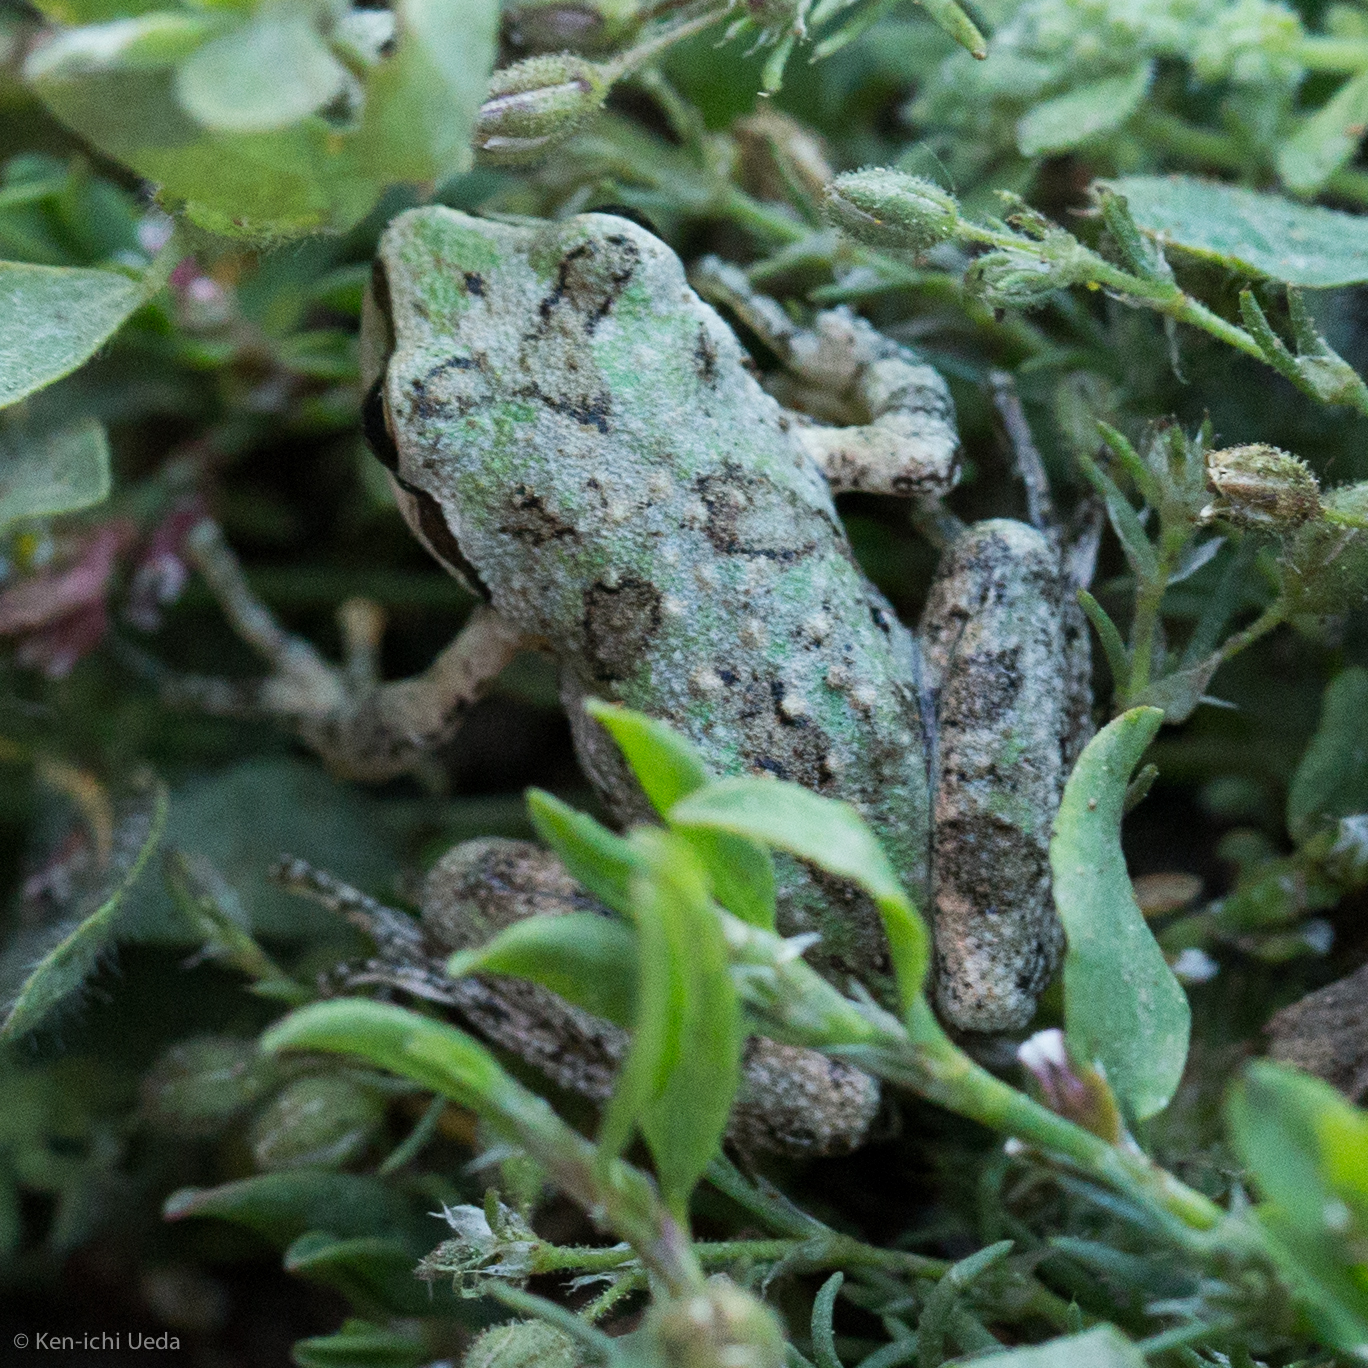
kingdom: Animalia
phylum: Chordata
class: Amphibia
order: Anura
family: Hylidae
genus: Pseudacris
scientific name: Pseudacris regilla
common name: Pacific chorus frog
